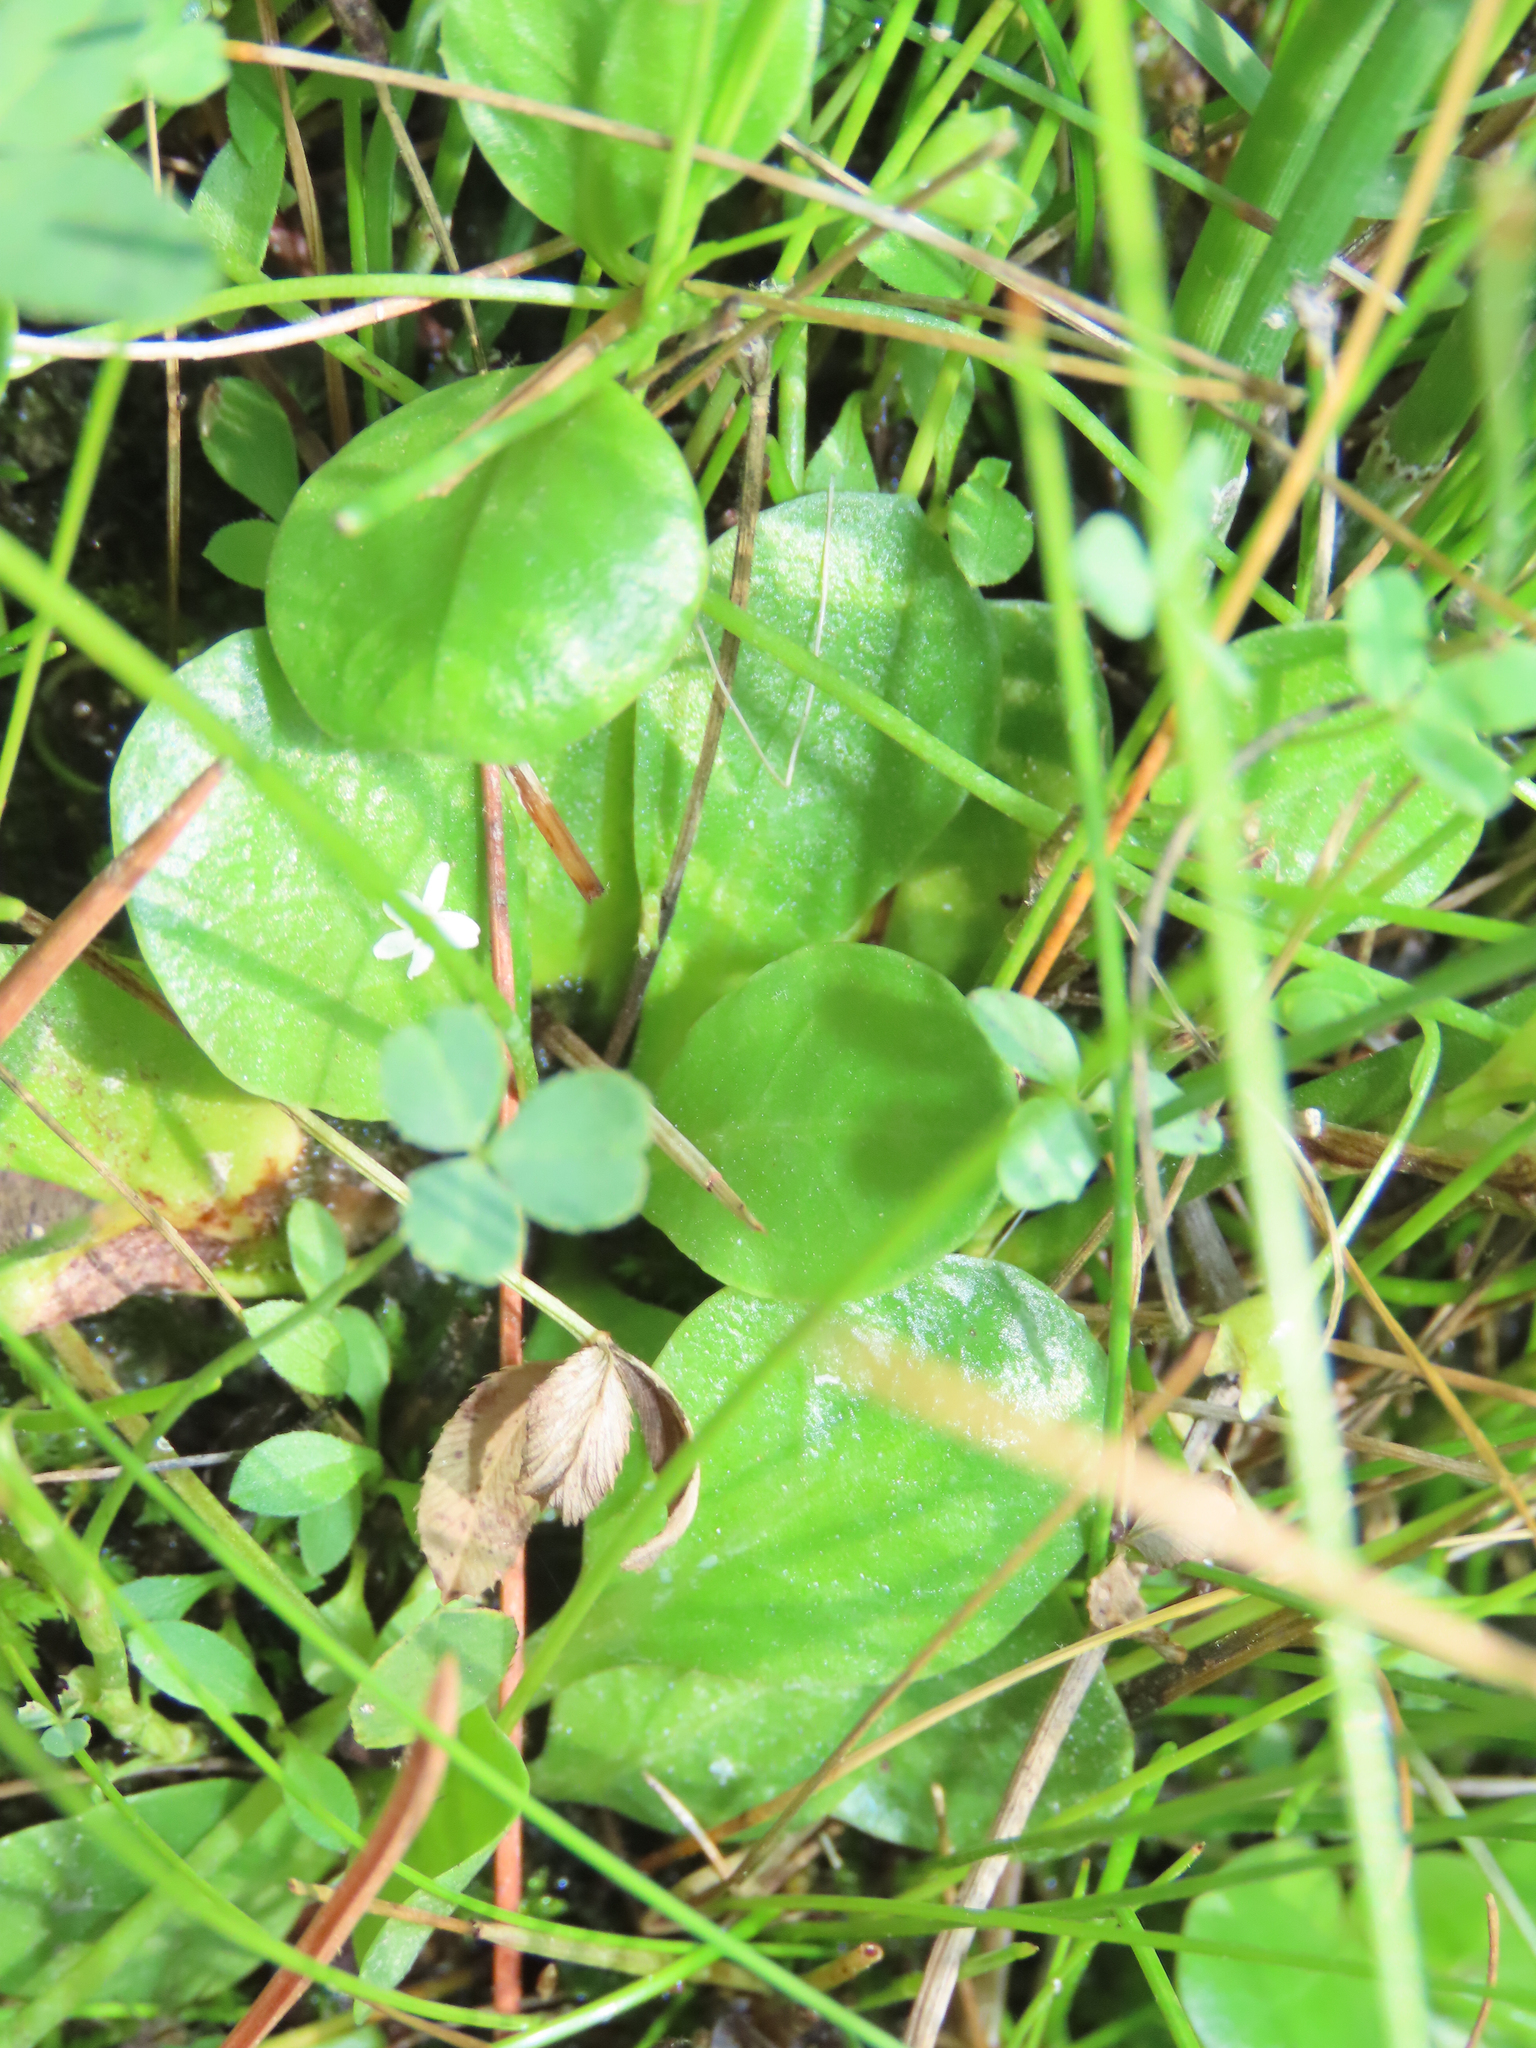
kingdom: Plantae
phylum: Tracheophyta
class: Magnoliopsida
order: Ericales
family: Primulaceae
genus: Samolus
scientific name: Samolus vagans
